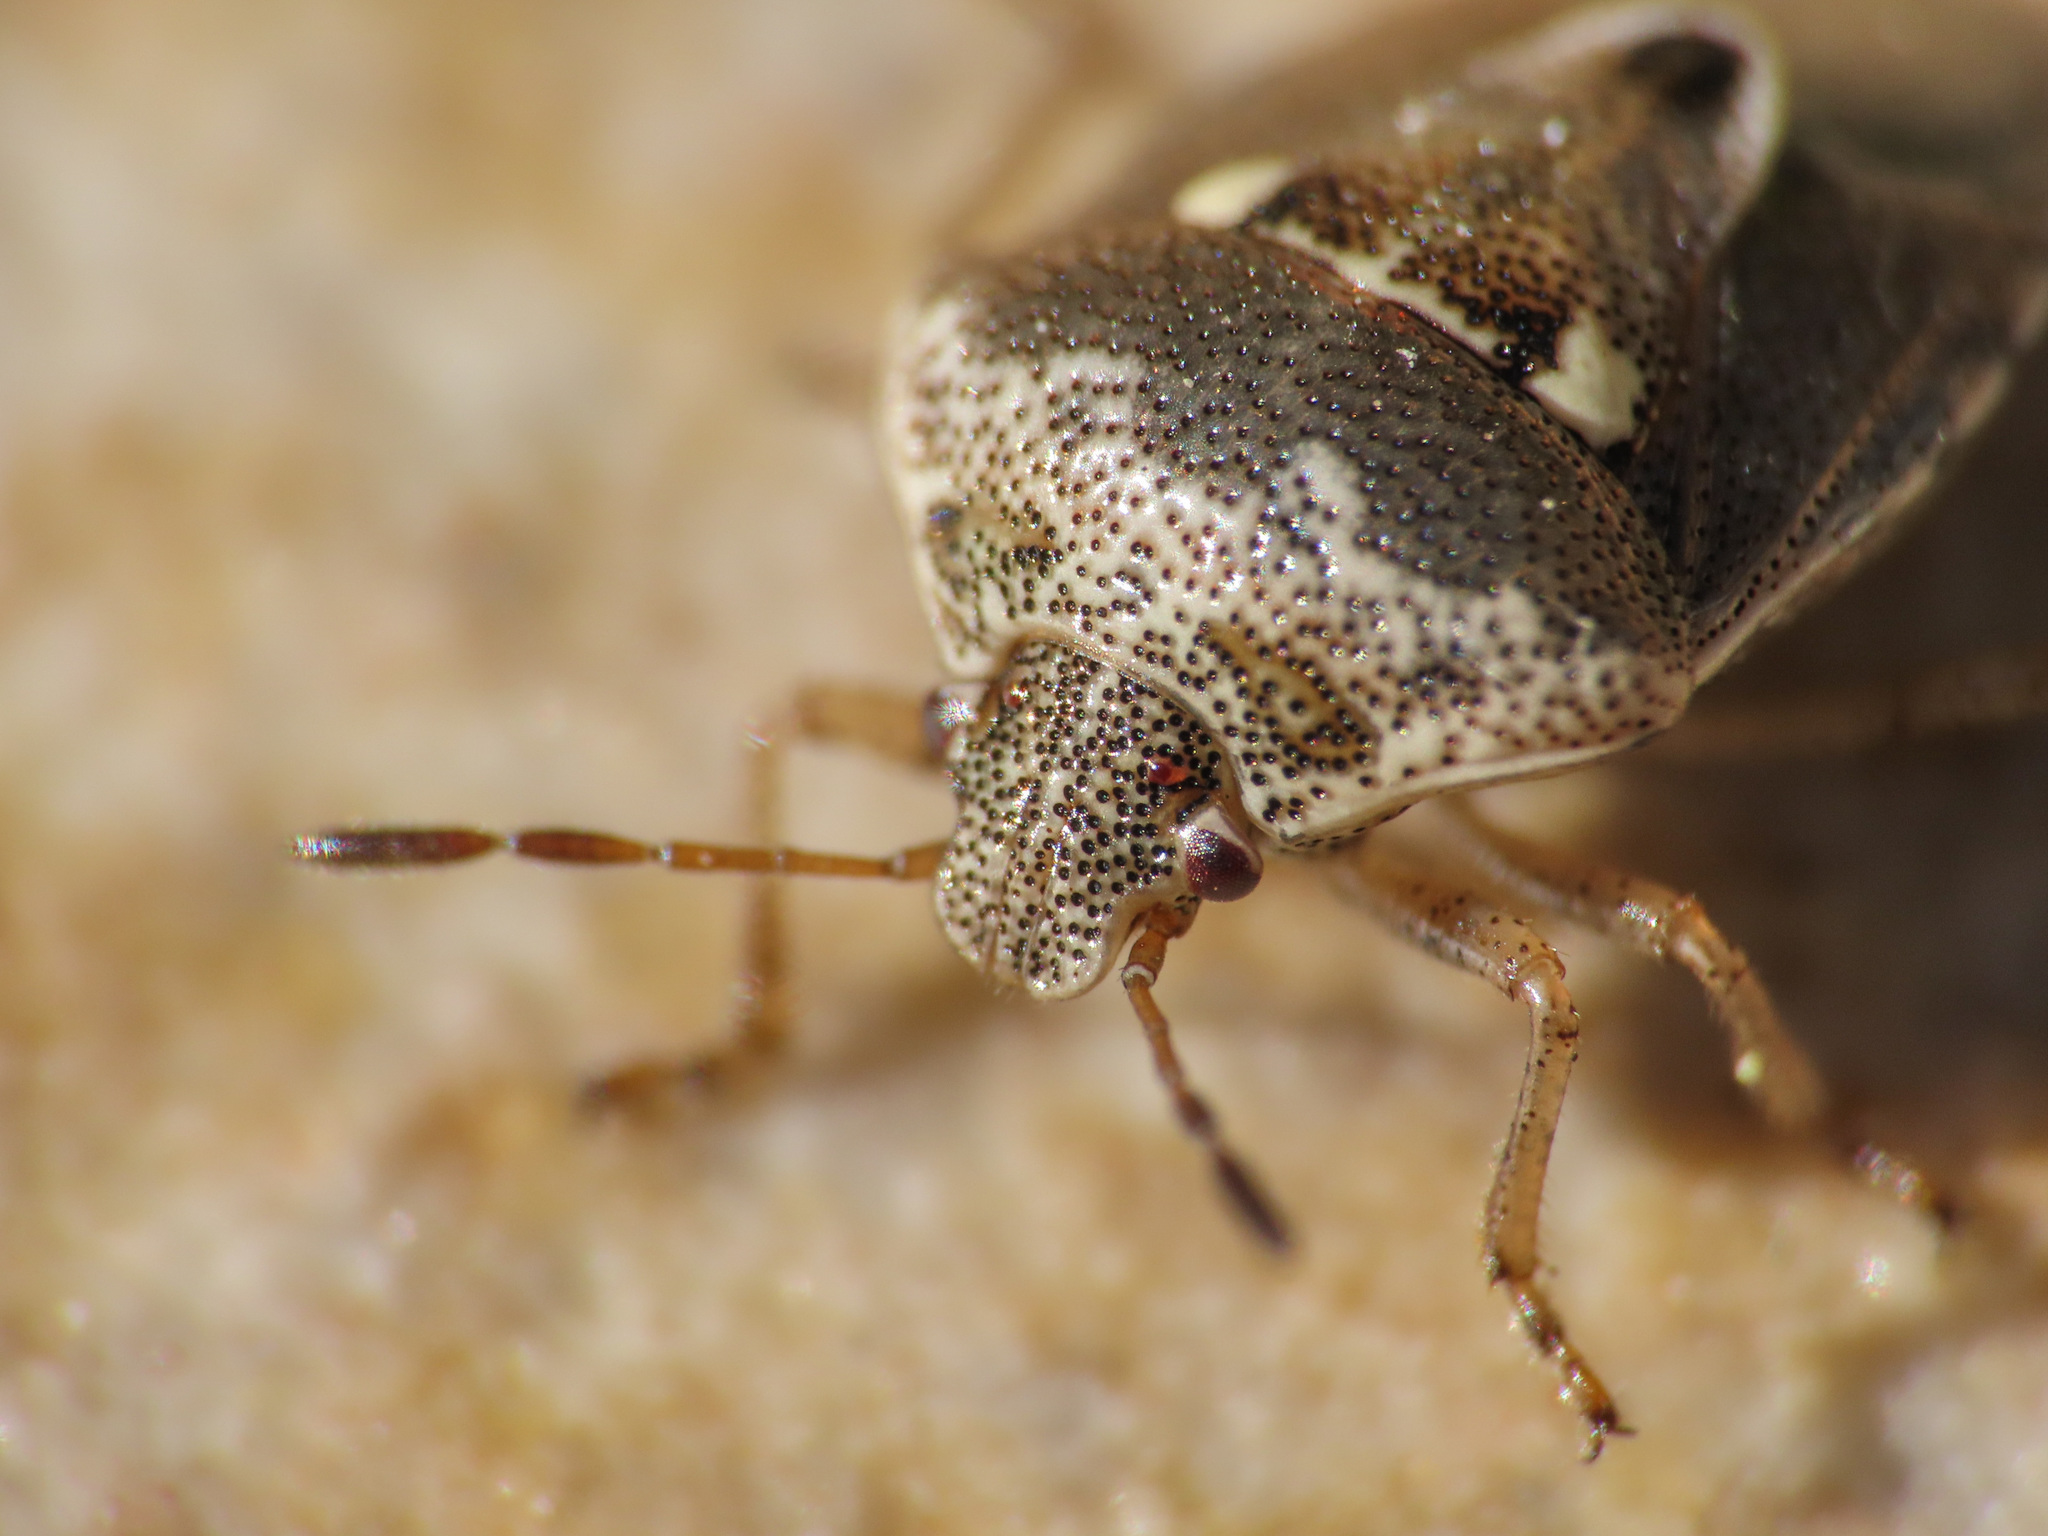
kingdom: Animalia
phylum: Arthropoda
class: Insecta
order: Hemiptera
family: Pentatomidae
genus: Stagonomus
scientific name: Stagonomus bipunctatus
